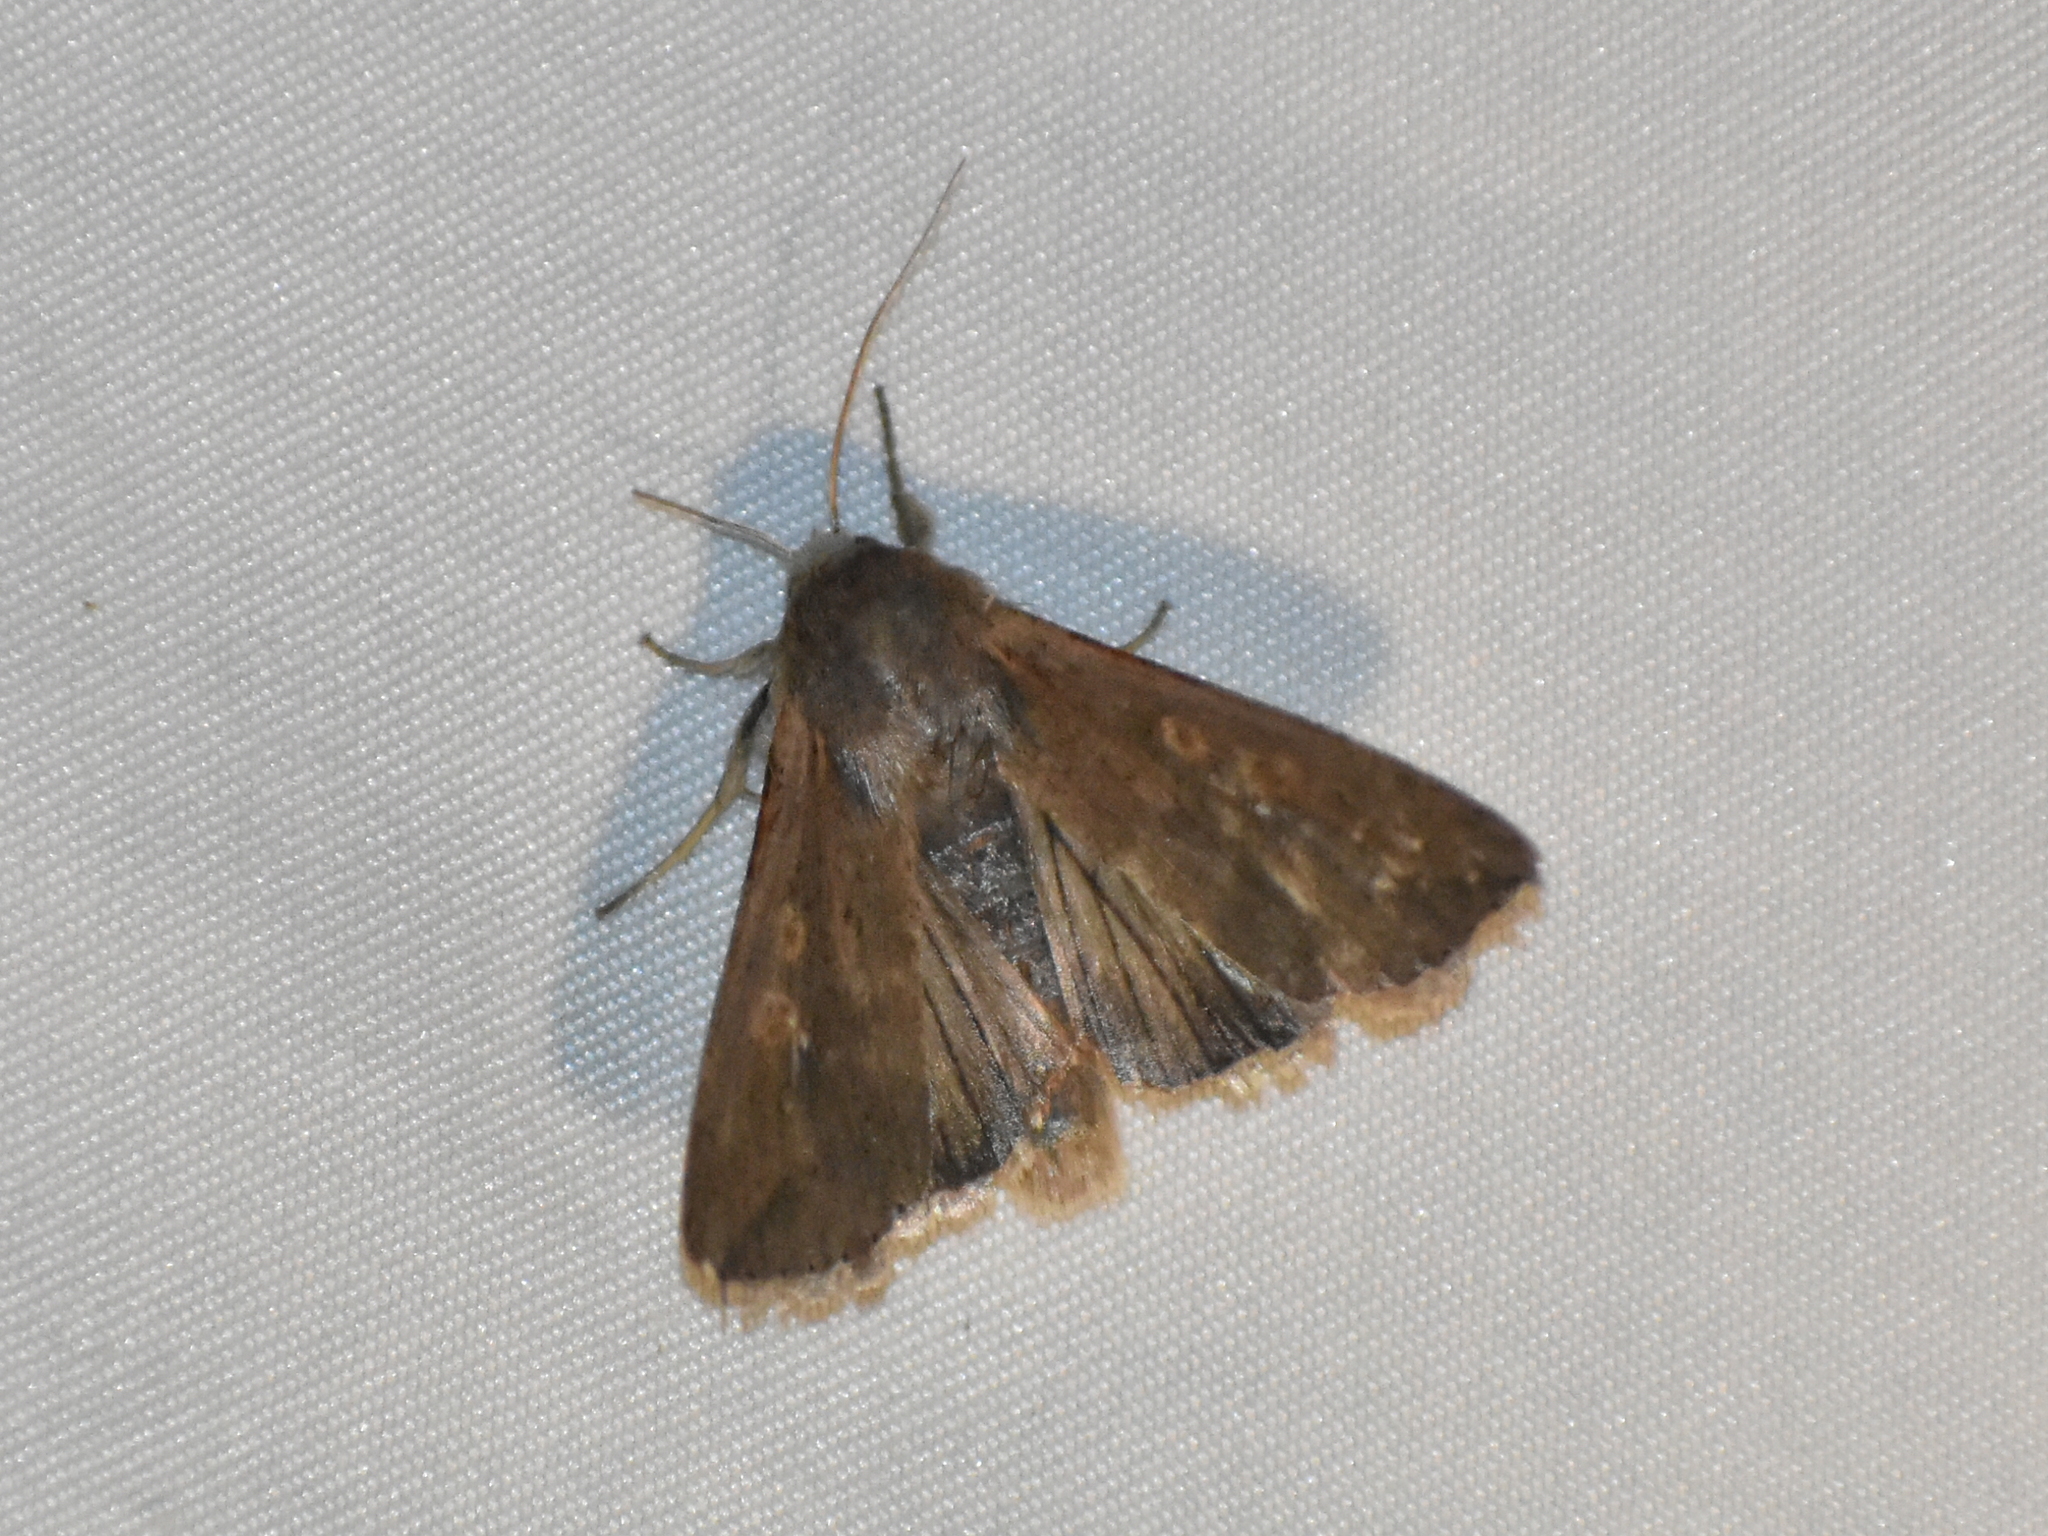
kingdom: Animalia
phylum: Arthropoda
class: Insecta
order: Lepidoptera
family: Noctuidae
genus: Mythimna
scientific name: Mythimna unipuncta
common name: White-speck
